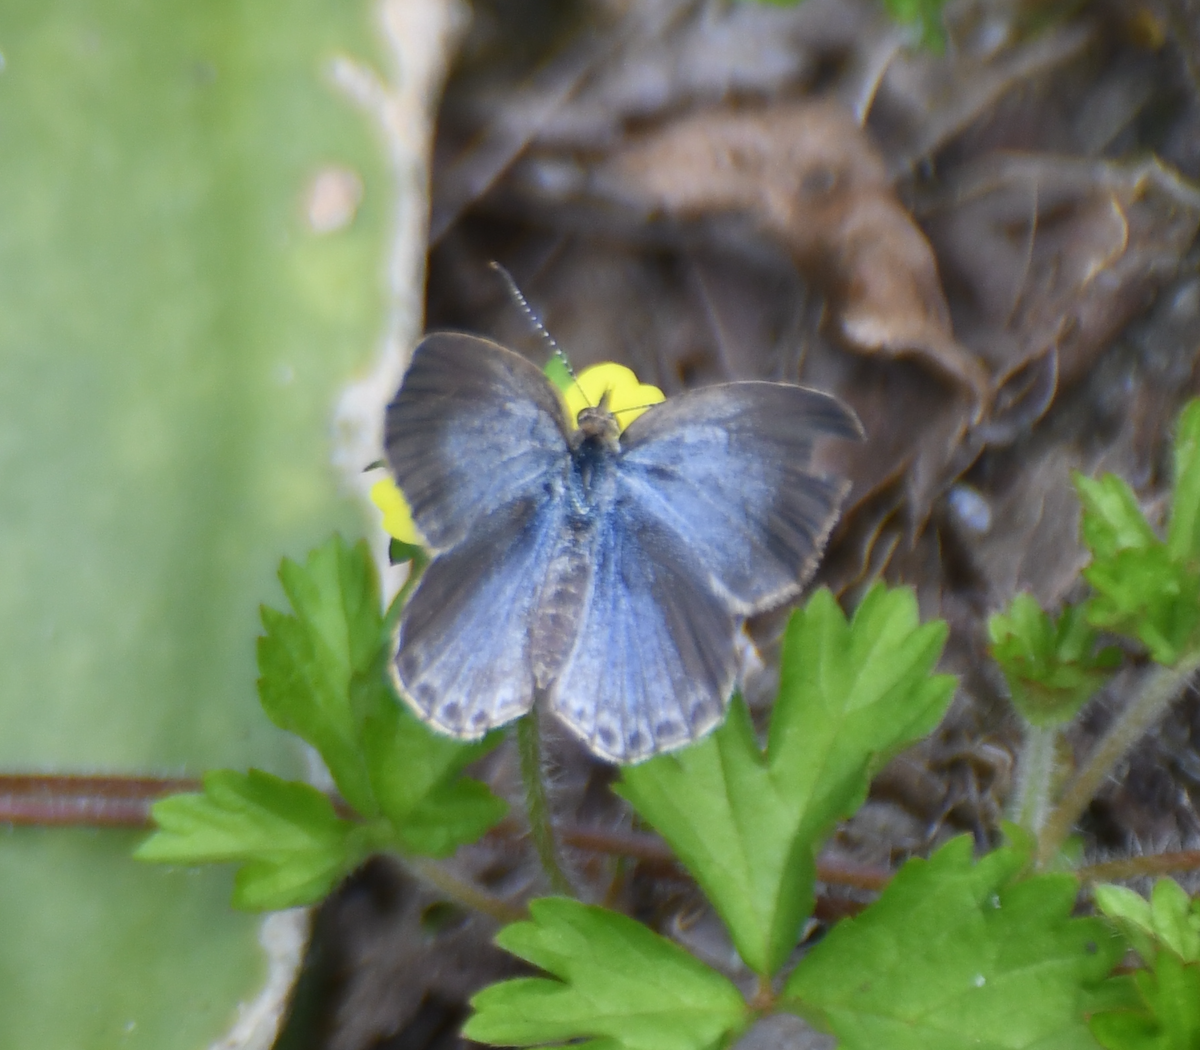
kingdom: Animalia
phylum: Arthropoda
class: Insecta
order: Lepidoptera
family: Lycaenidae
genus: Pseudozizeeria
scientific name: Pseudozizeeria maha
